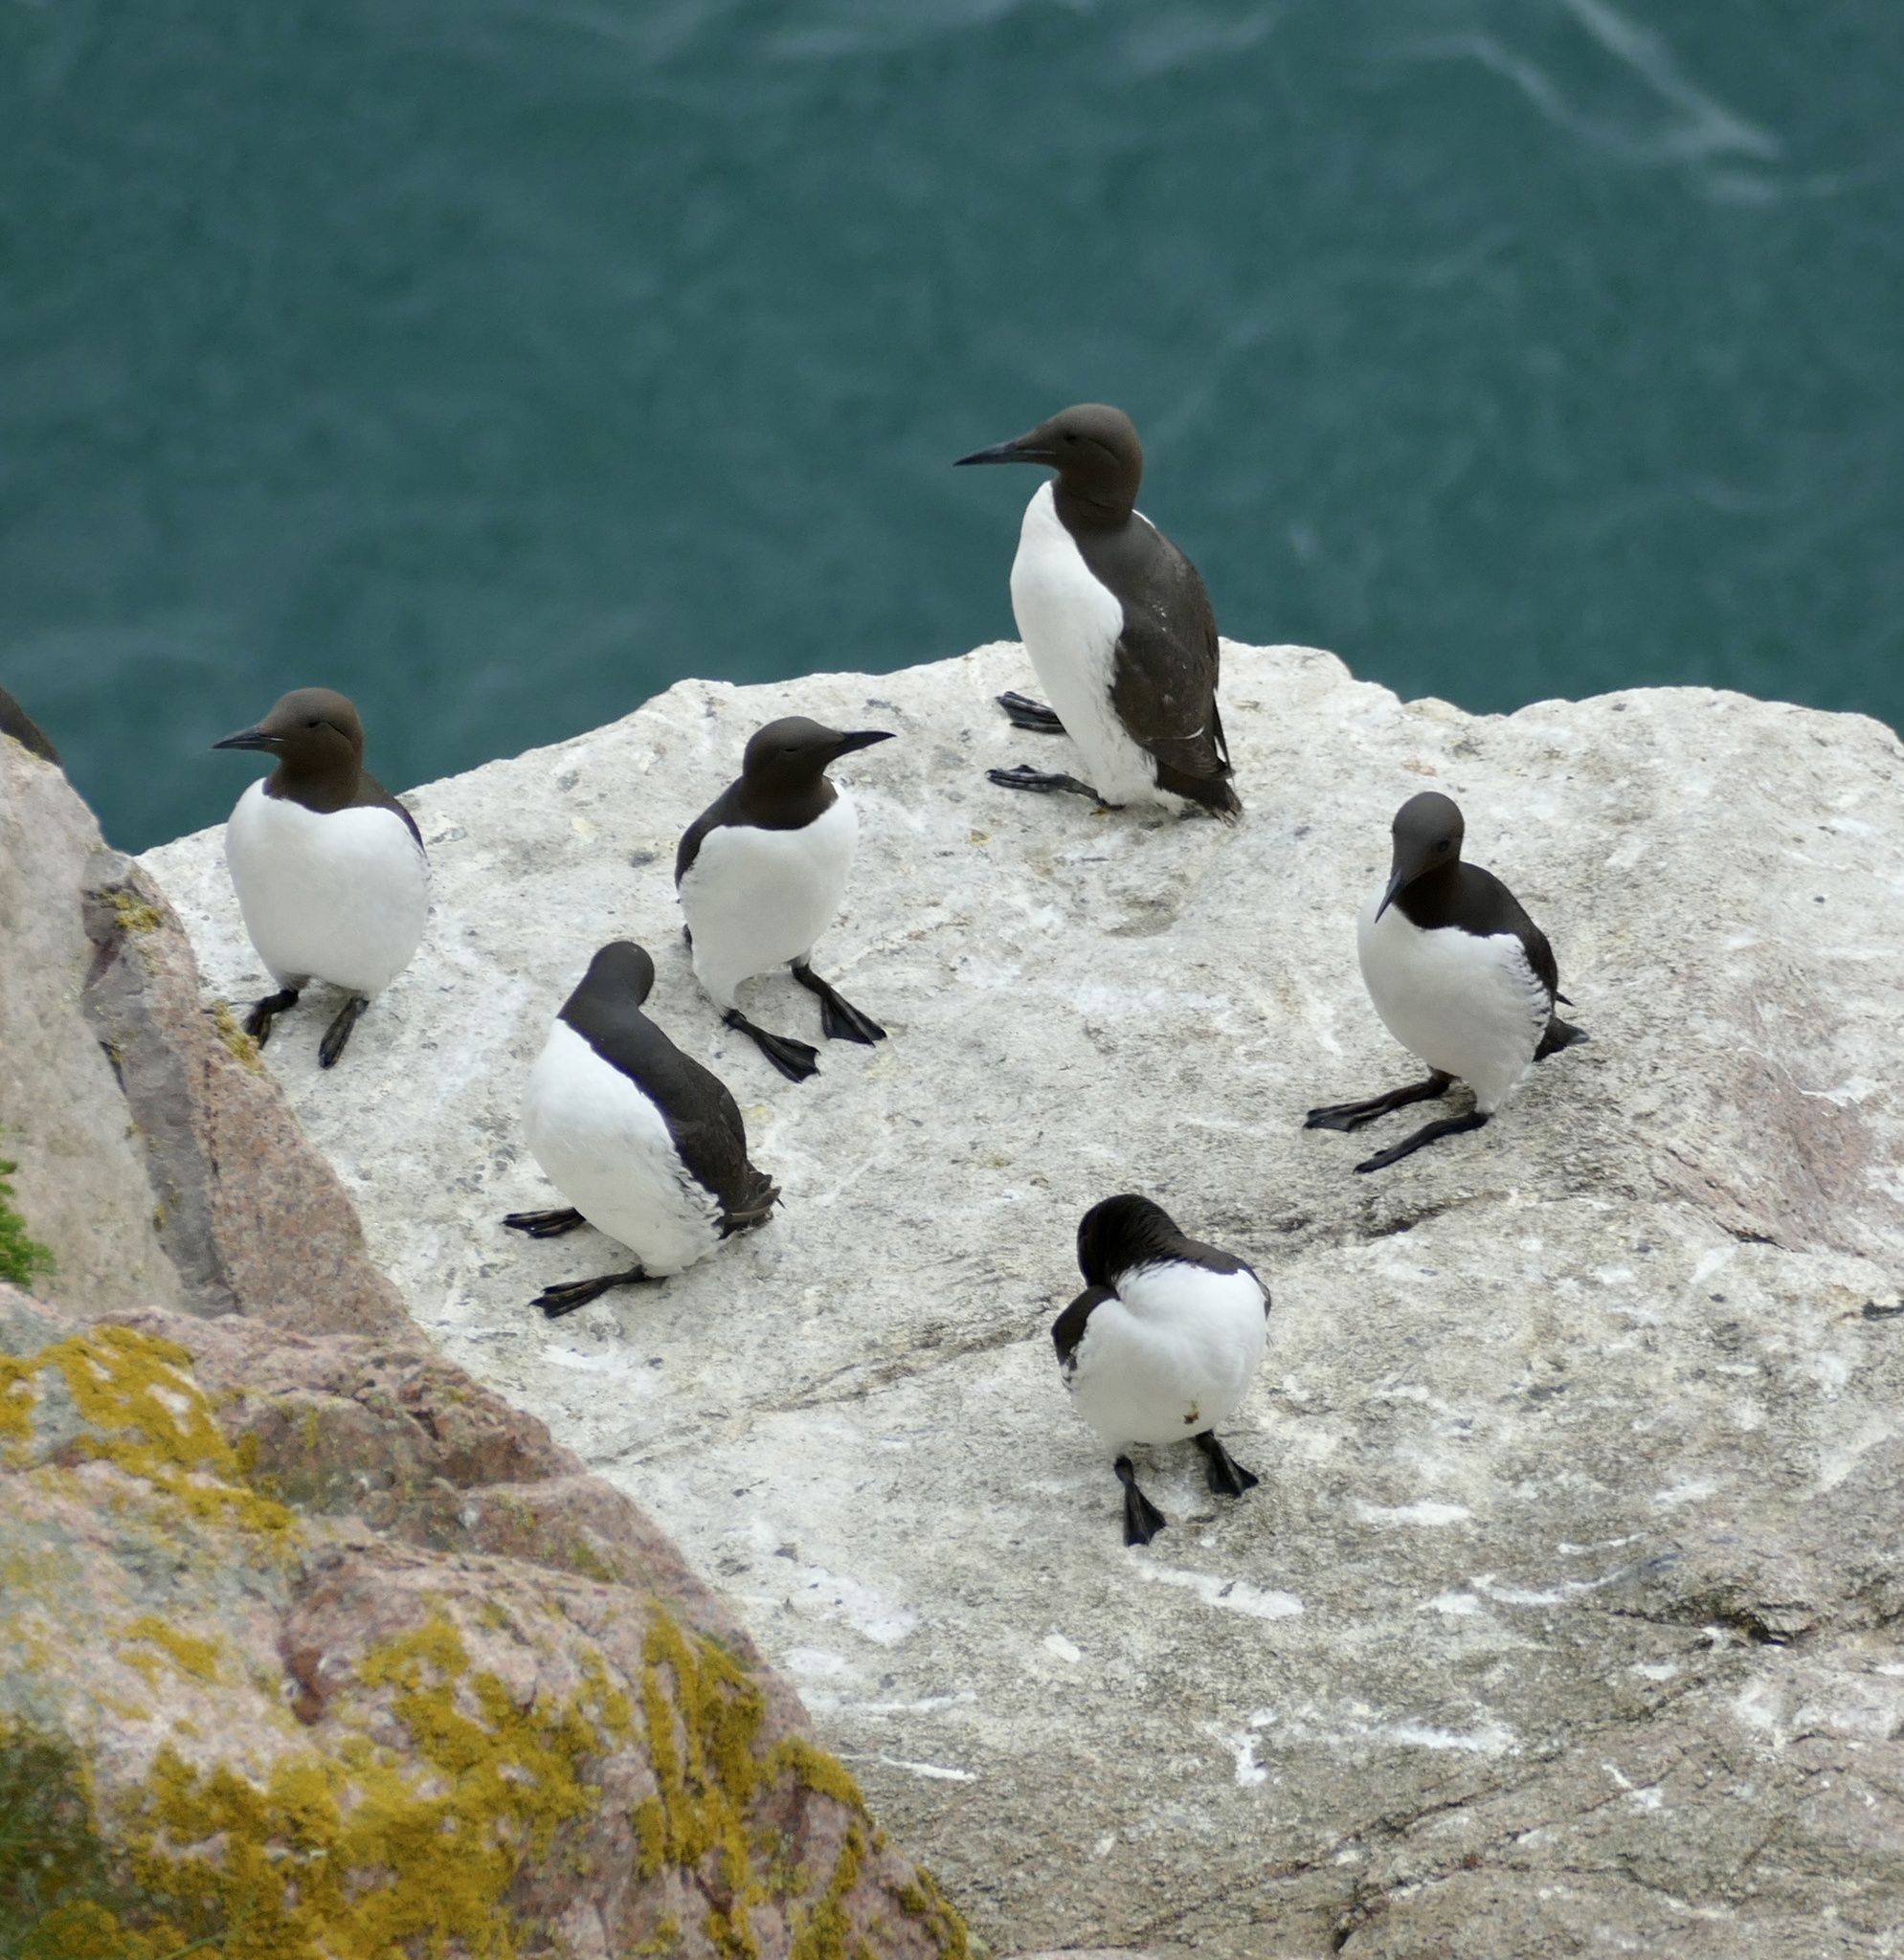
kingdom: Animalia
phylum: Chordata
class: Aves
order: Charadriiformes
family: Alcidae
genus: Uria
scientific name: Uria aalge
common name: Common murre
